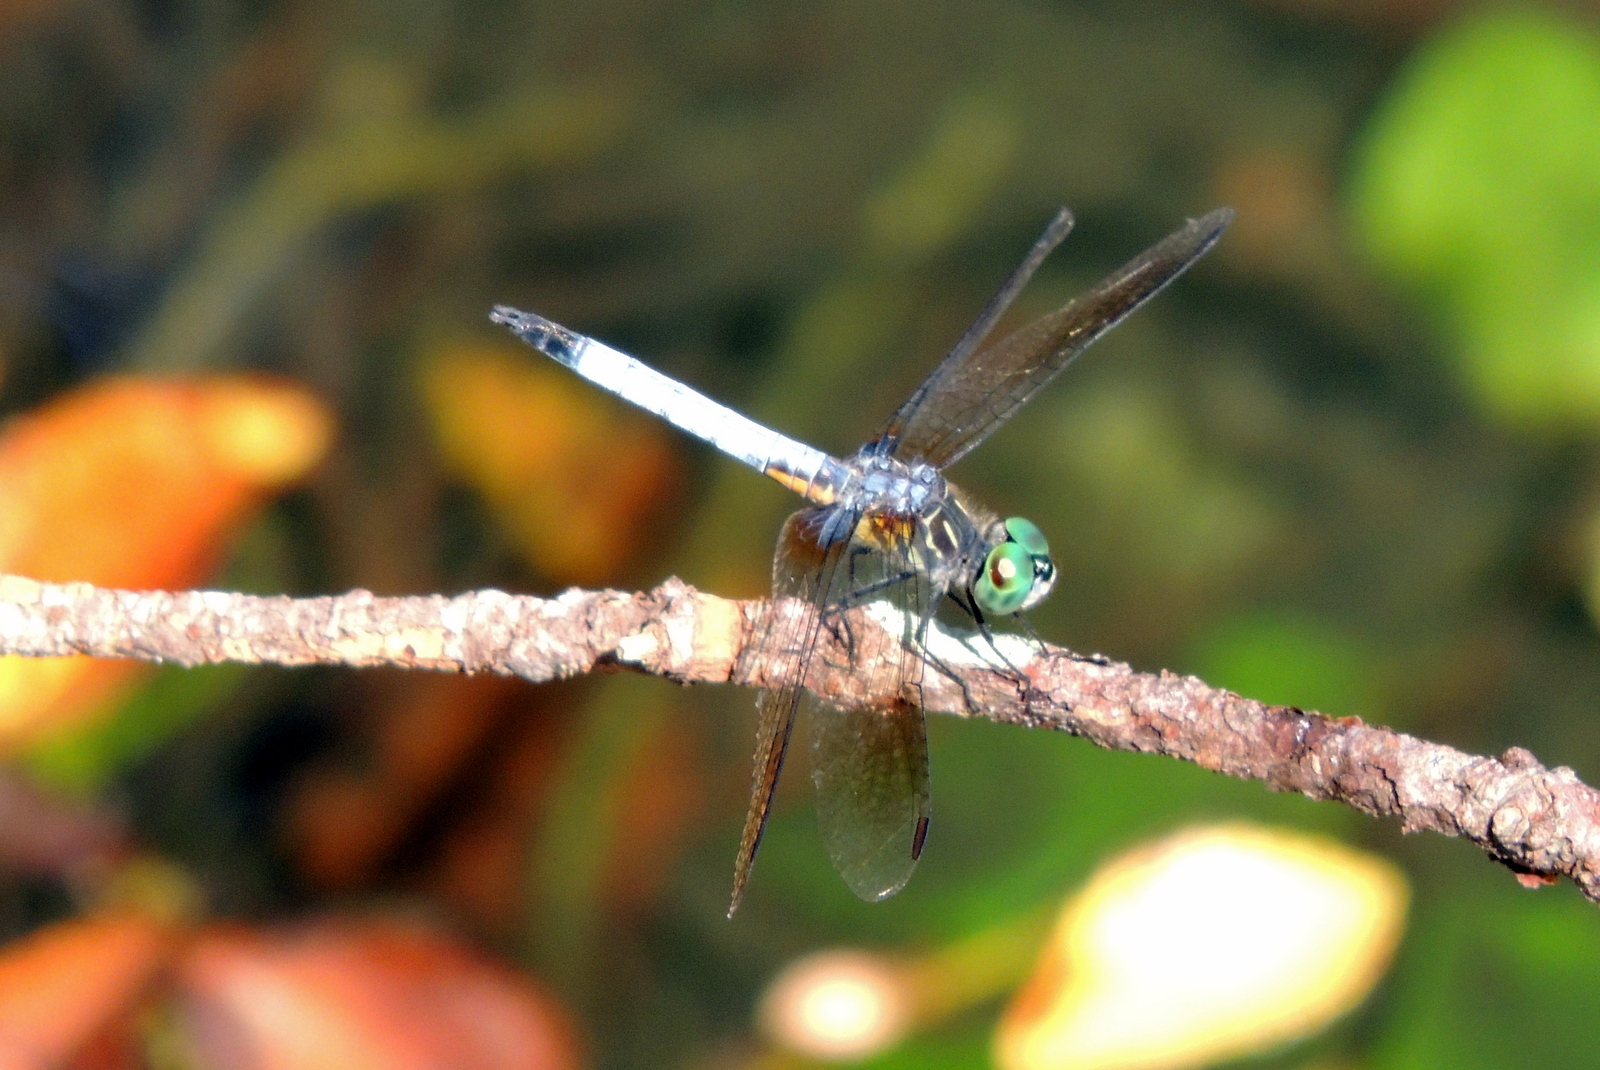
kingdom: Animalia
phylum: Arthropoda
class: Insecta
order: Odonata
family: Libellulidae
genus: Pachydiplax
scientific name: Pachydiplax longipennis
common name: Blue dasher
